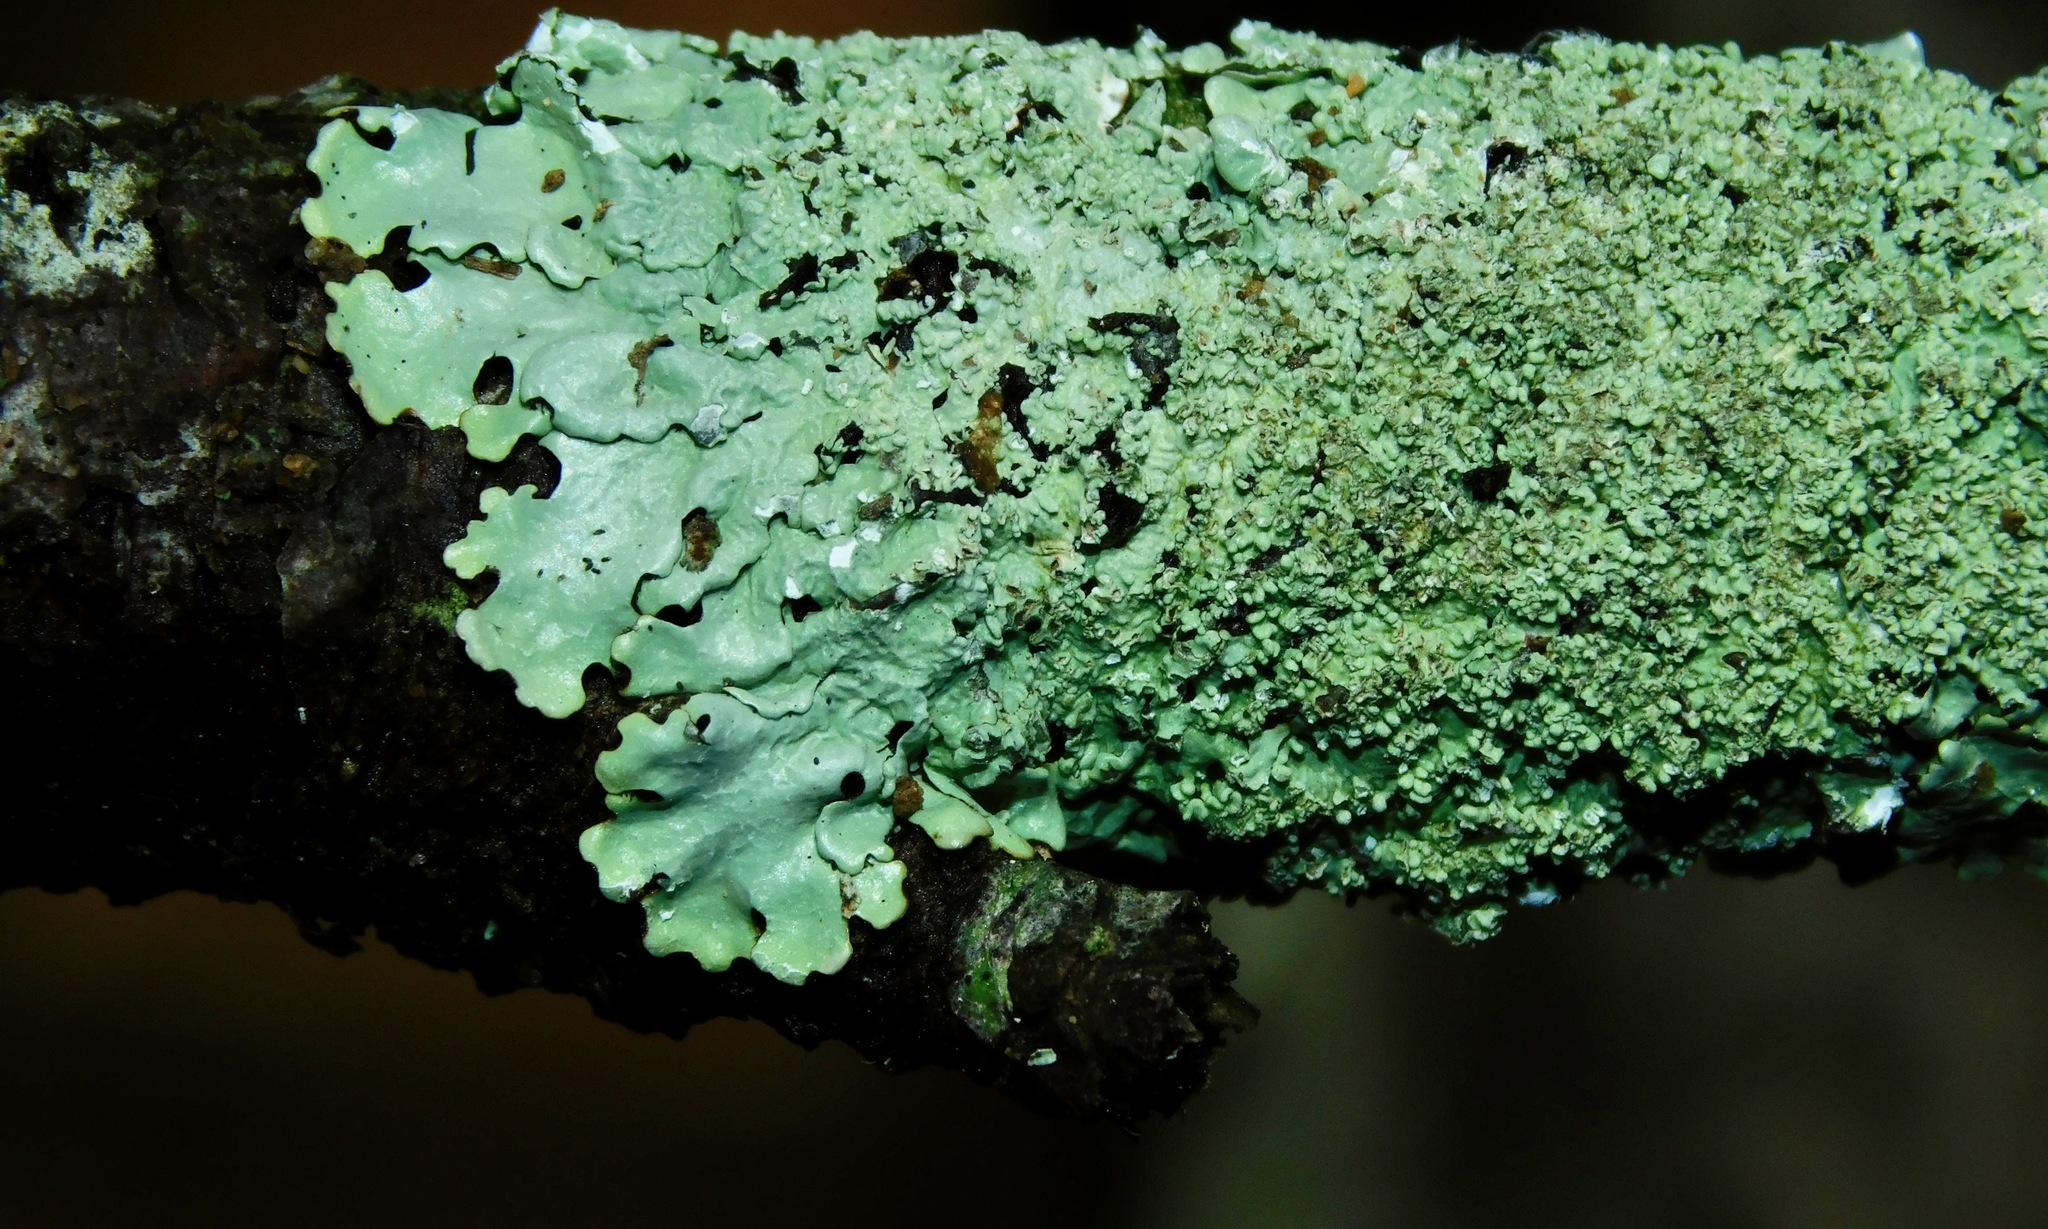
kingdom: Fungi
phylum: Ascomycota
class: Lecanoromycetes
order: Lecanorales
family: Parmeliaceae
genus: Hypotrachyna
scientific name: Hypotrachyna showmanii
